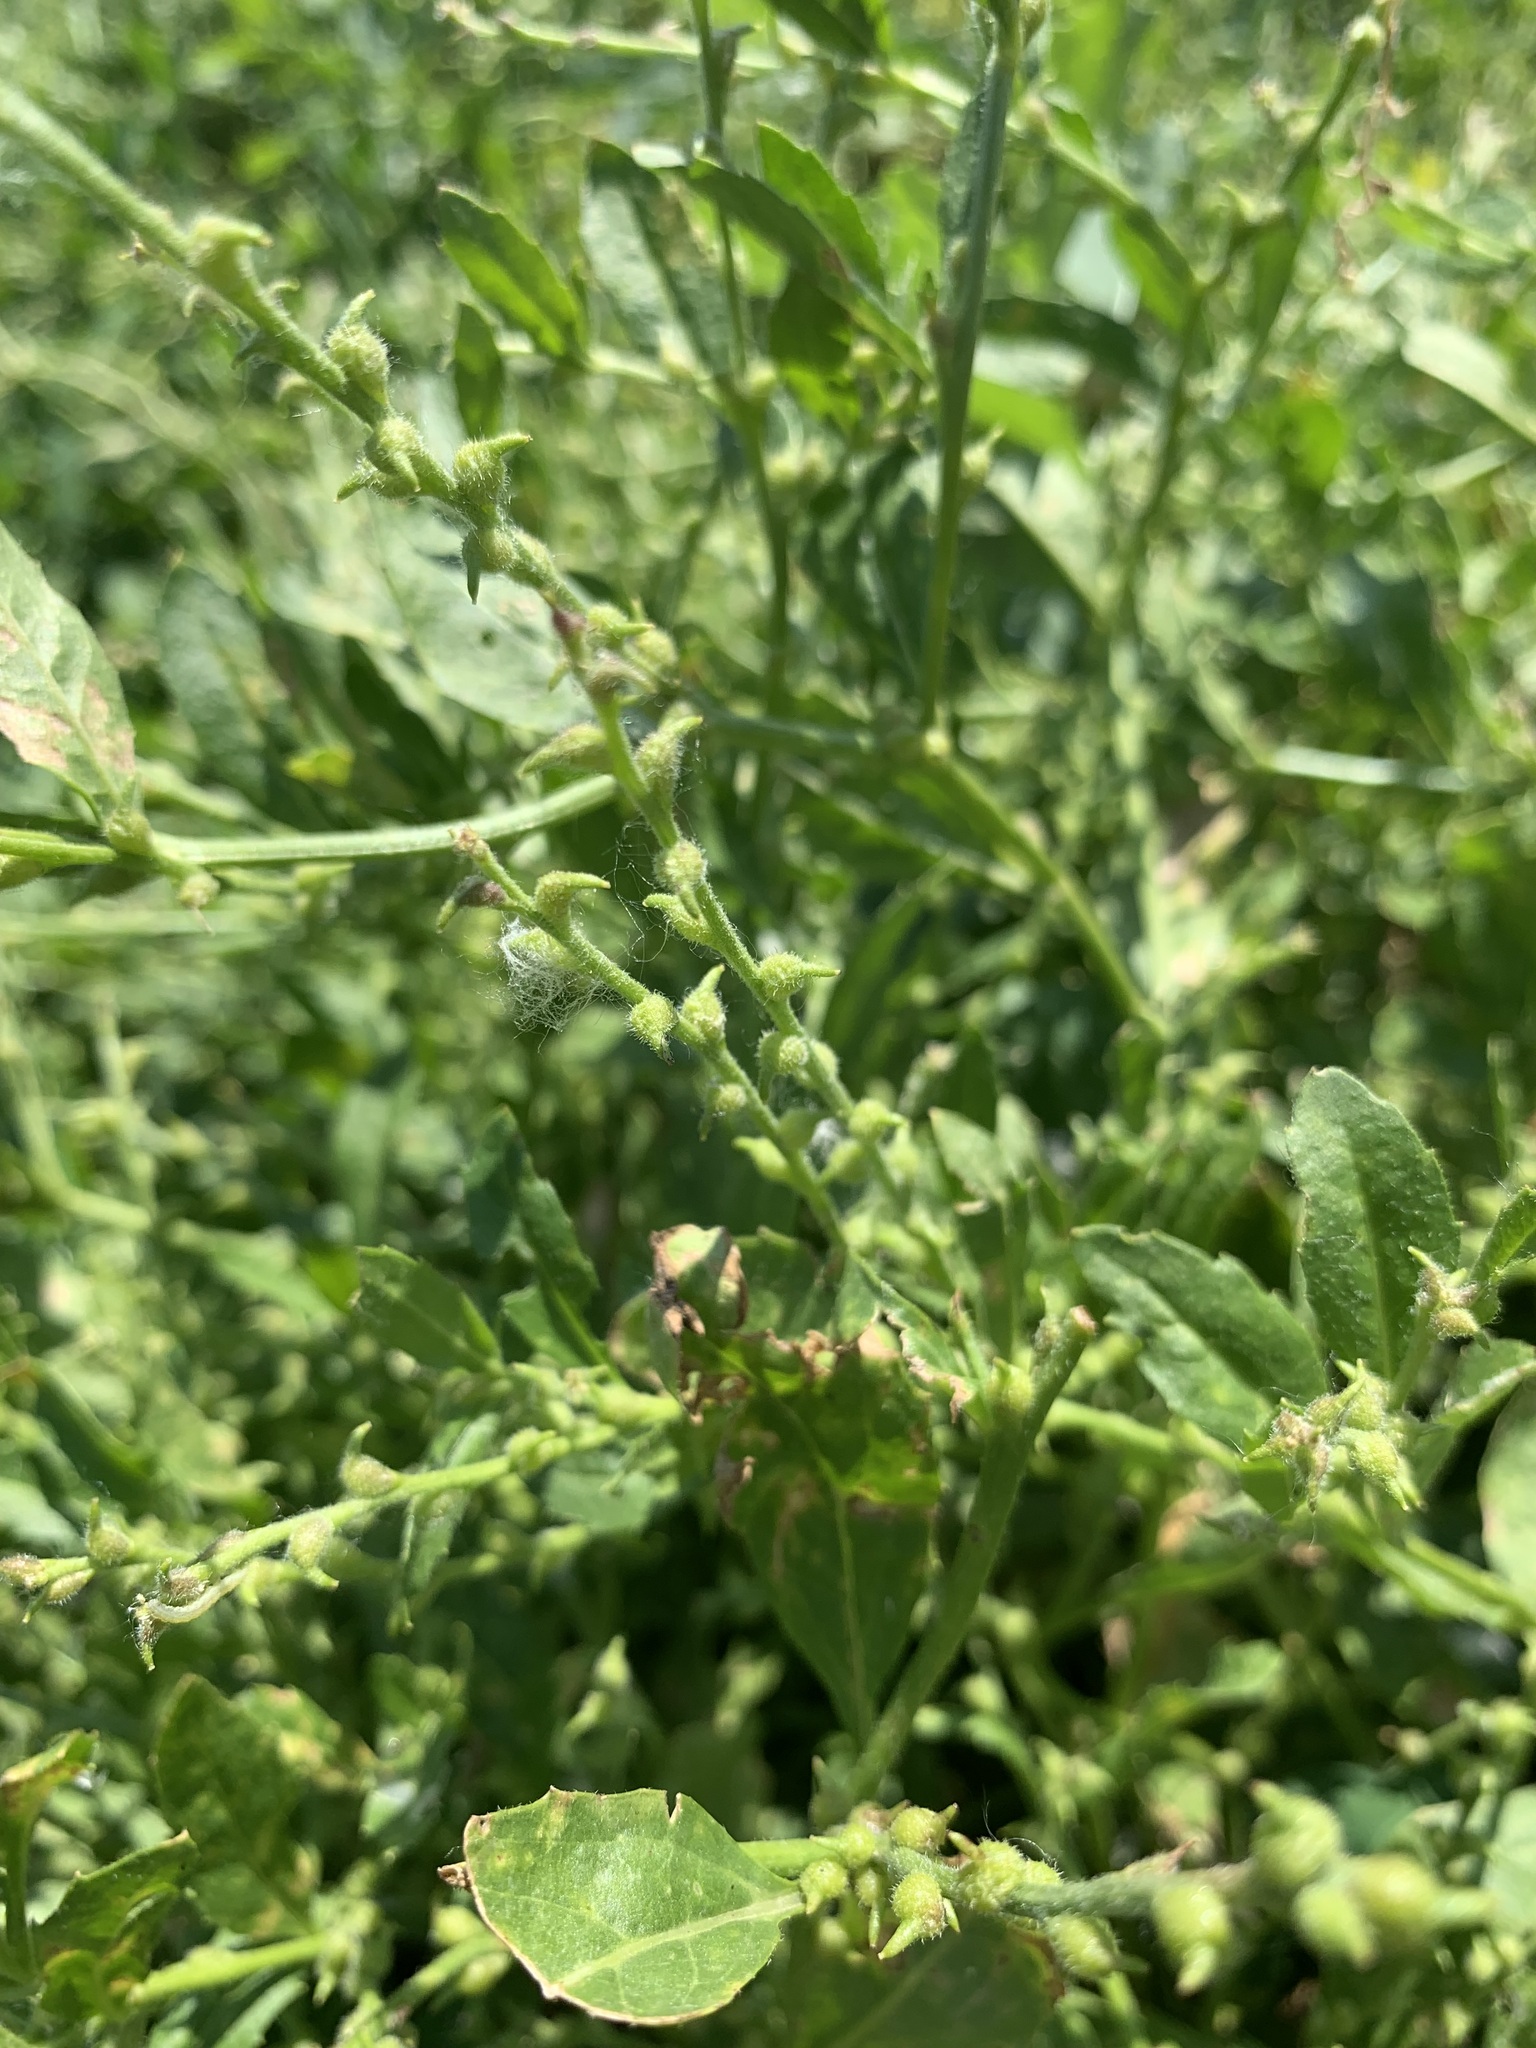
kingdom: Plantae
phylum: Tracheophyta
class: Magnoliopsida
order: Brassicales
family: Brassicaceae
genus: Euclidium
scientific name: Euclidium syriacum
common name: Syrian mustard
